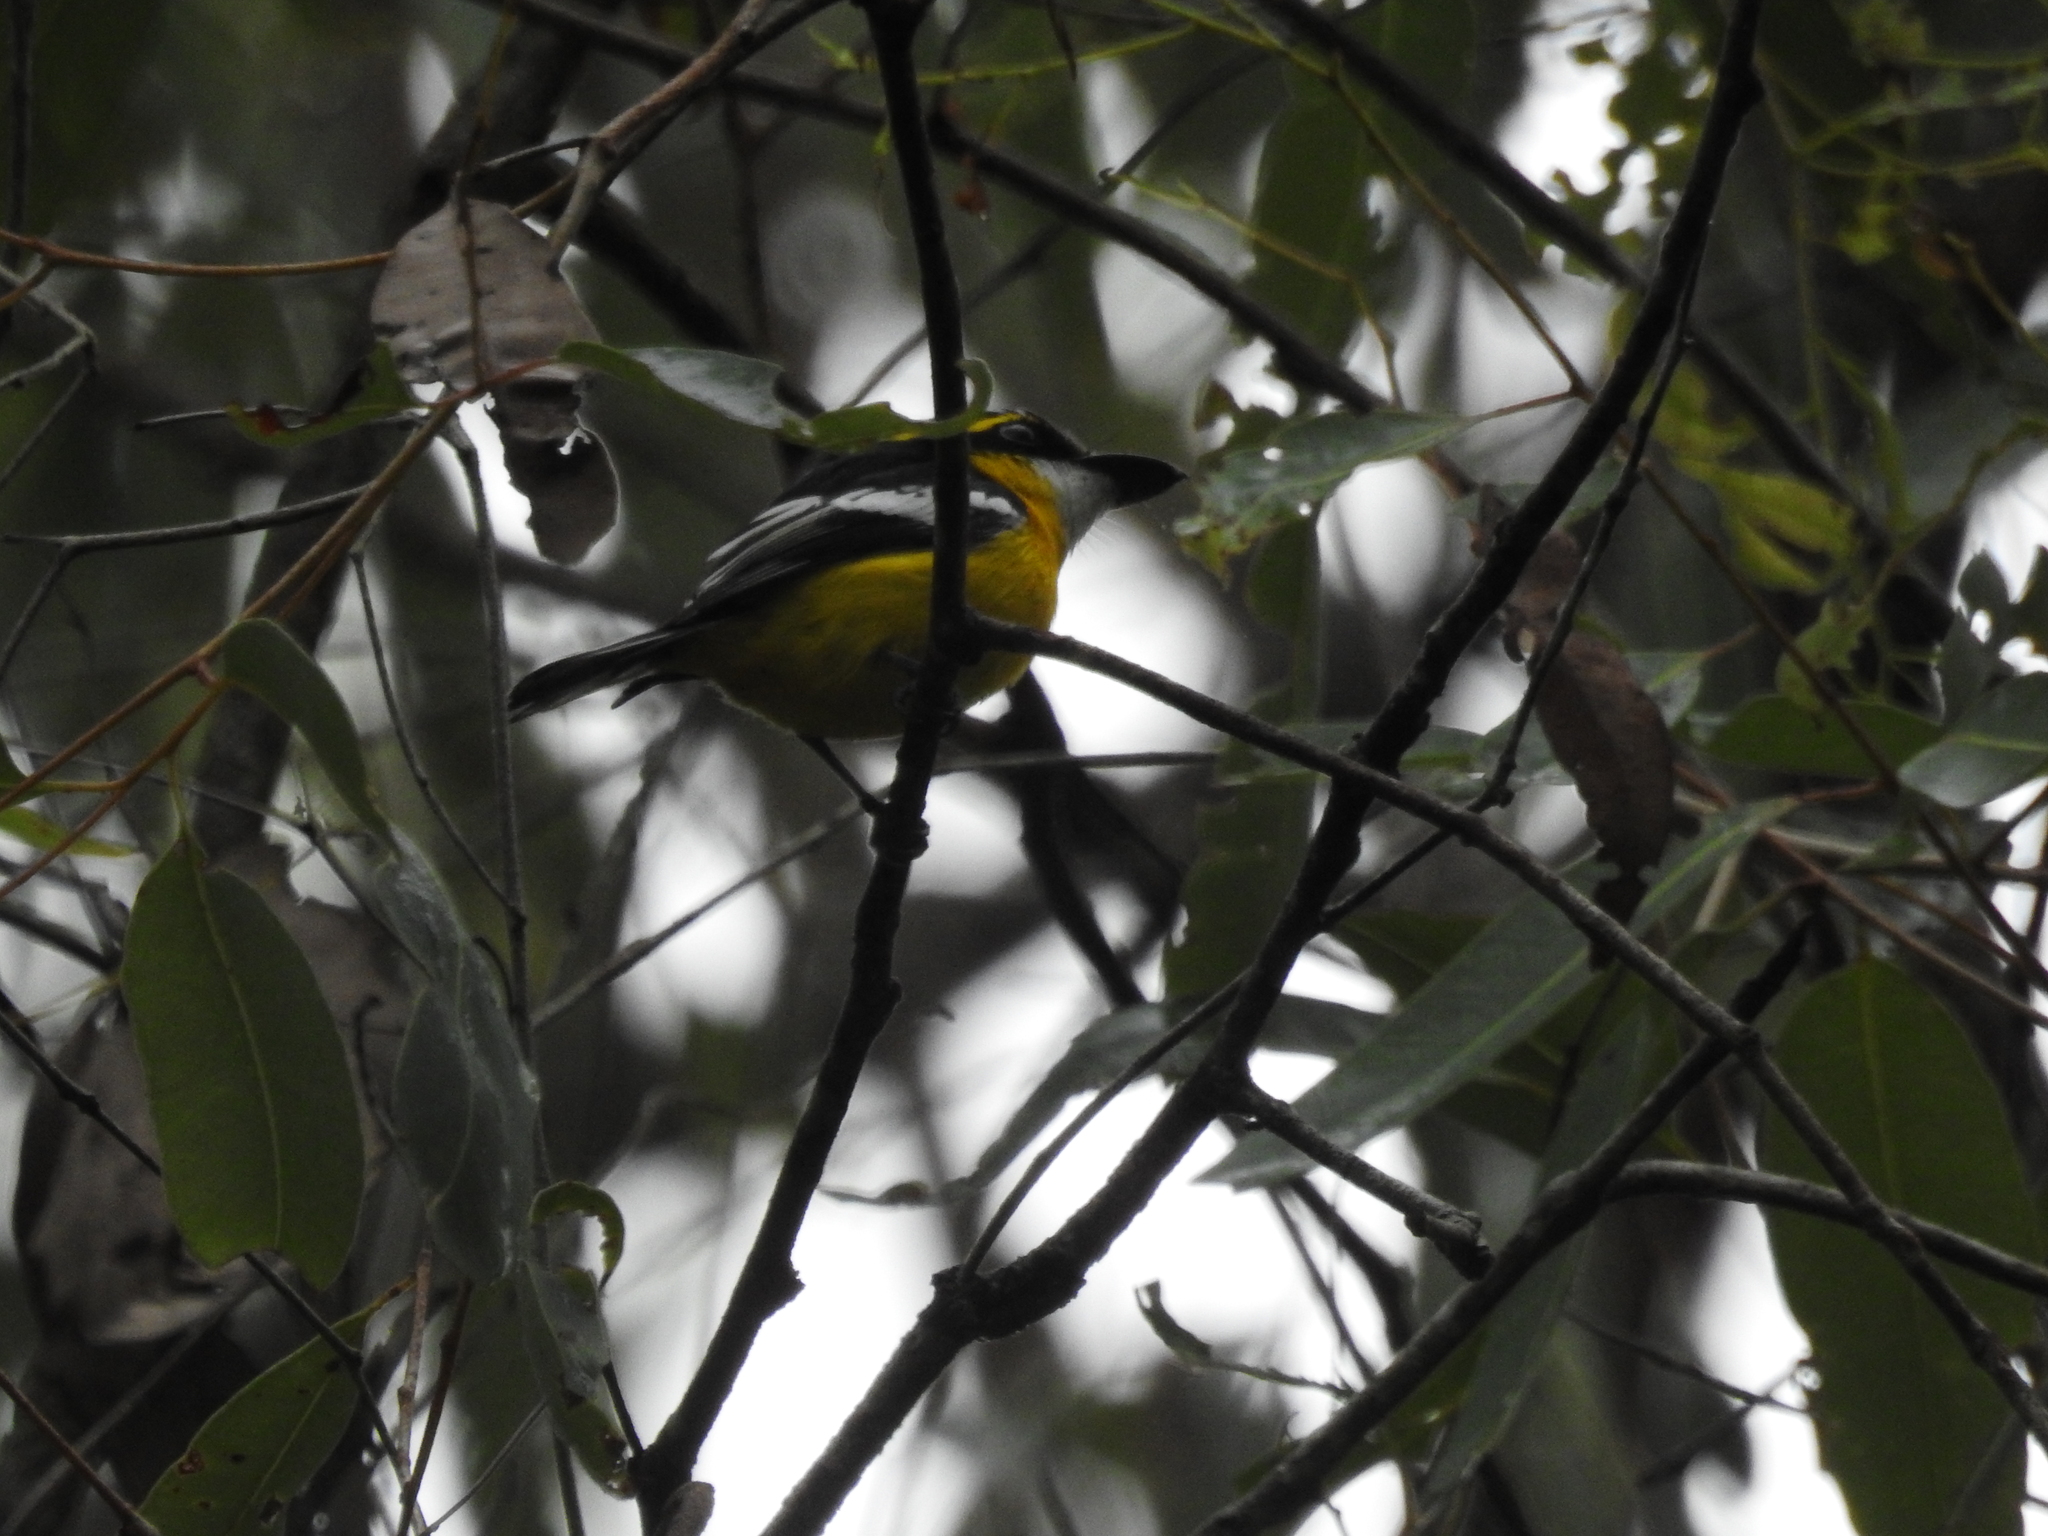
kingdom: Animalia
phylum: Chordata
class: Aves
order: Passeriformes
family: Machaerirhynchidae
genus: Machaerirhynchus
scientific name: Machaerirhynchus flaviventer
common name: Yellow-breasted boatbill
